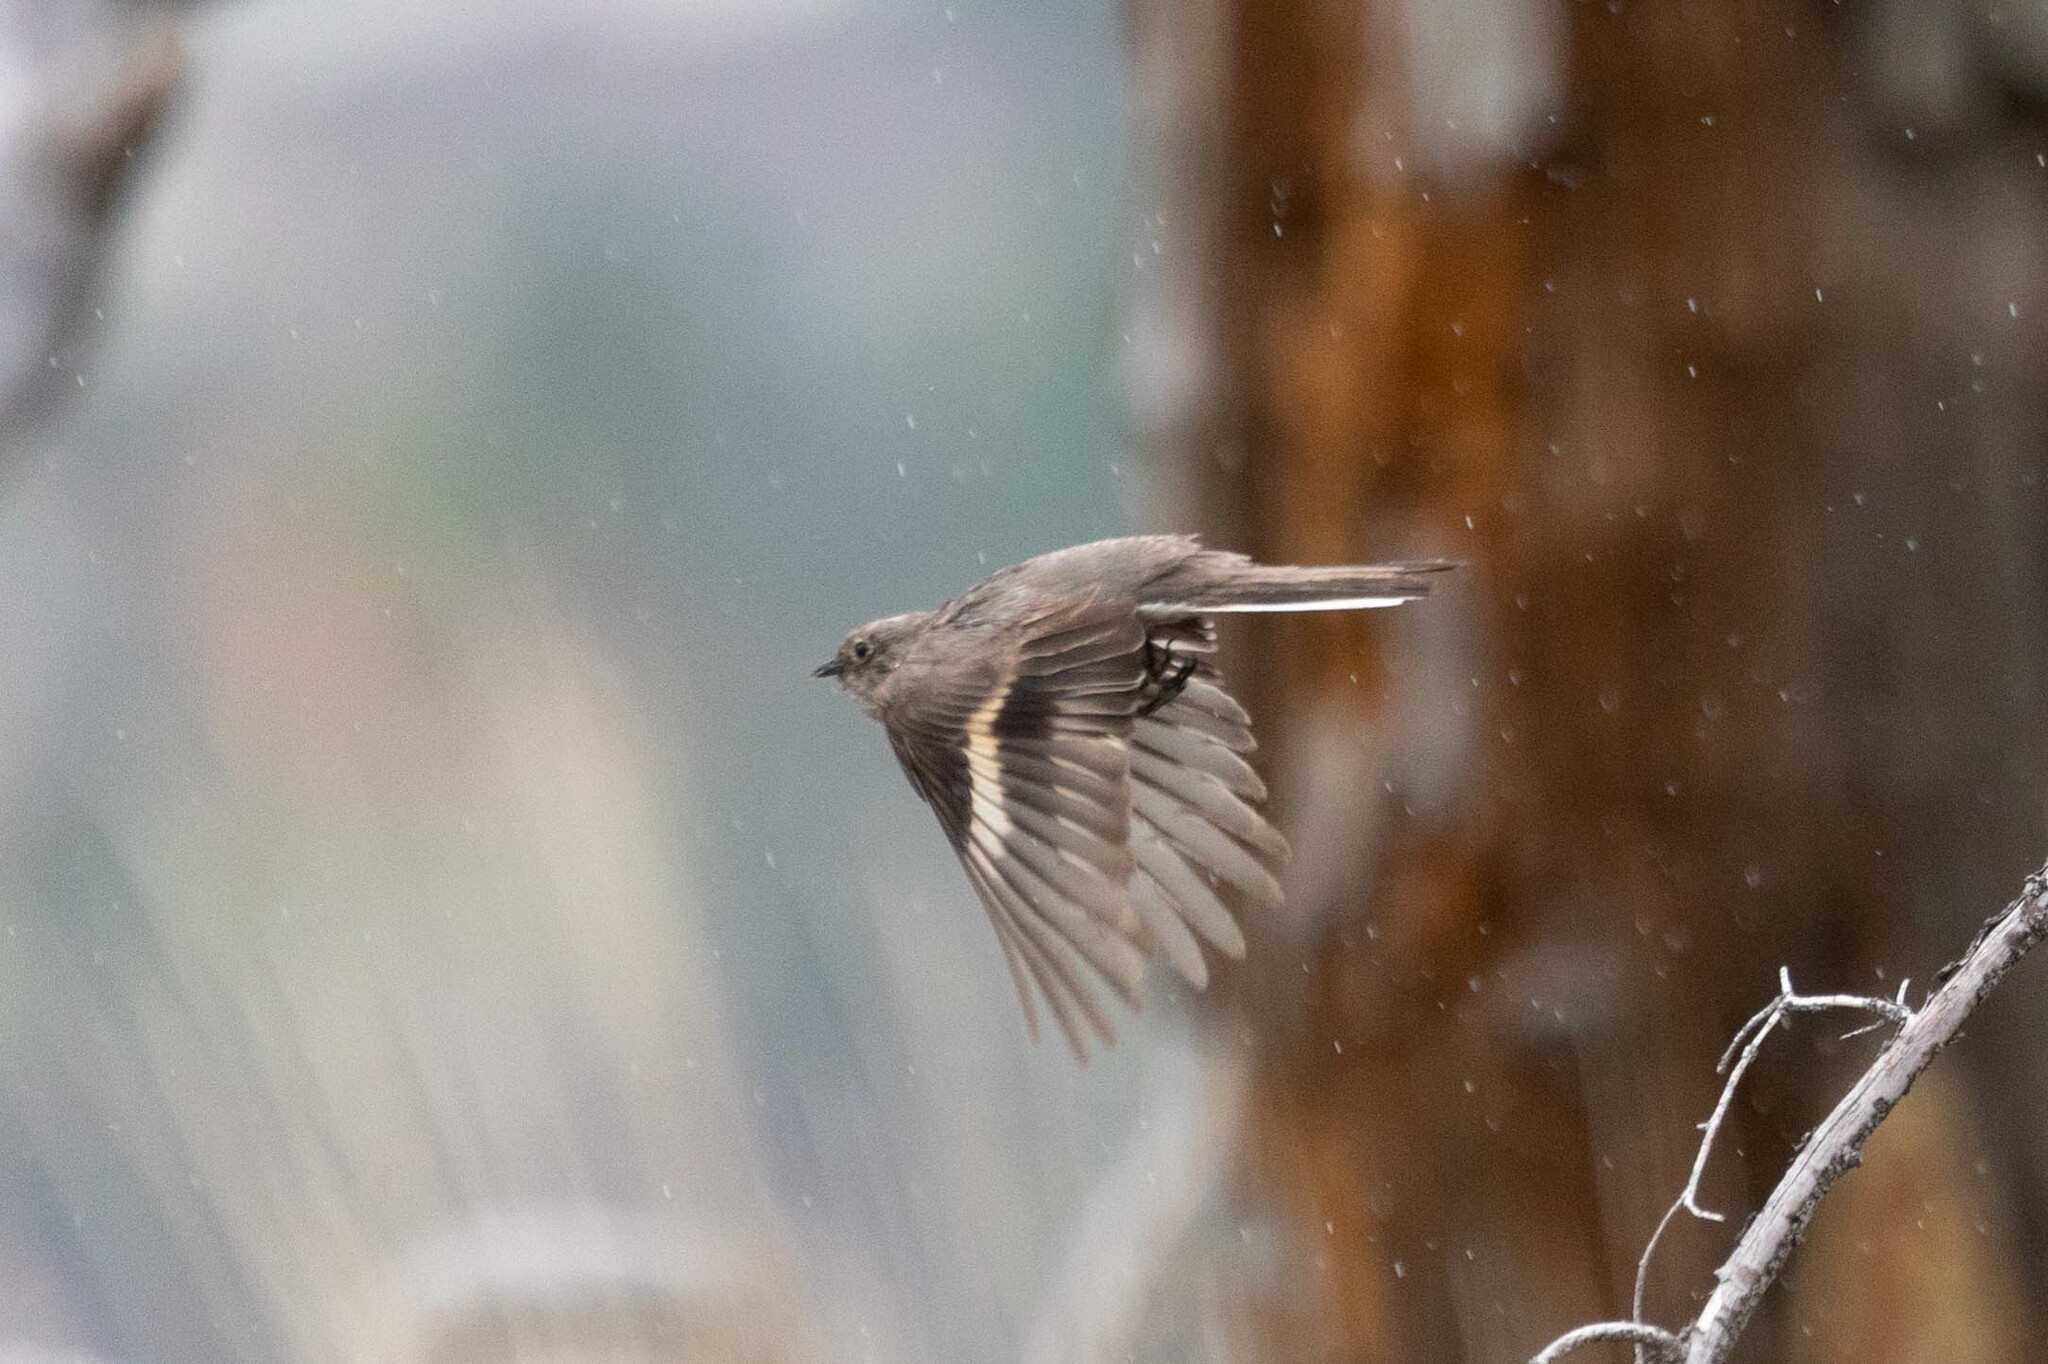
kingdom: Animalia
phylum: Chordata
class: Aves
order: Passeriformes
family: Turdidae
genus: Myadestes
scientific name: Myadestes townsendi
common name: Townsend's solitaire
